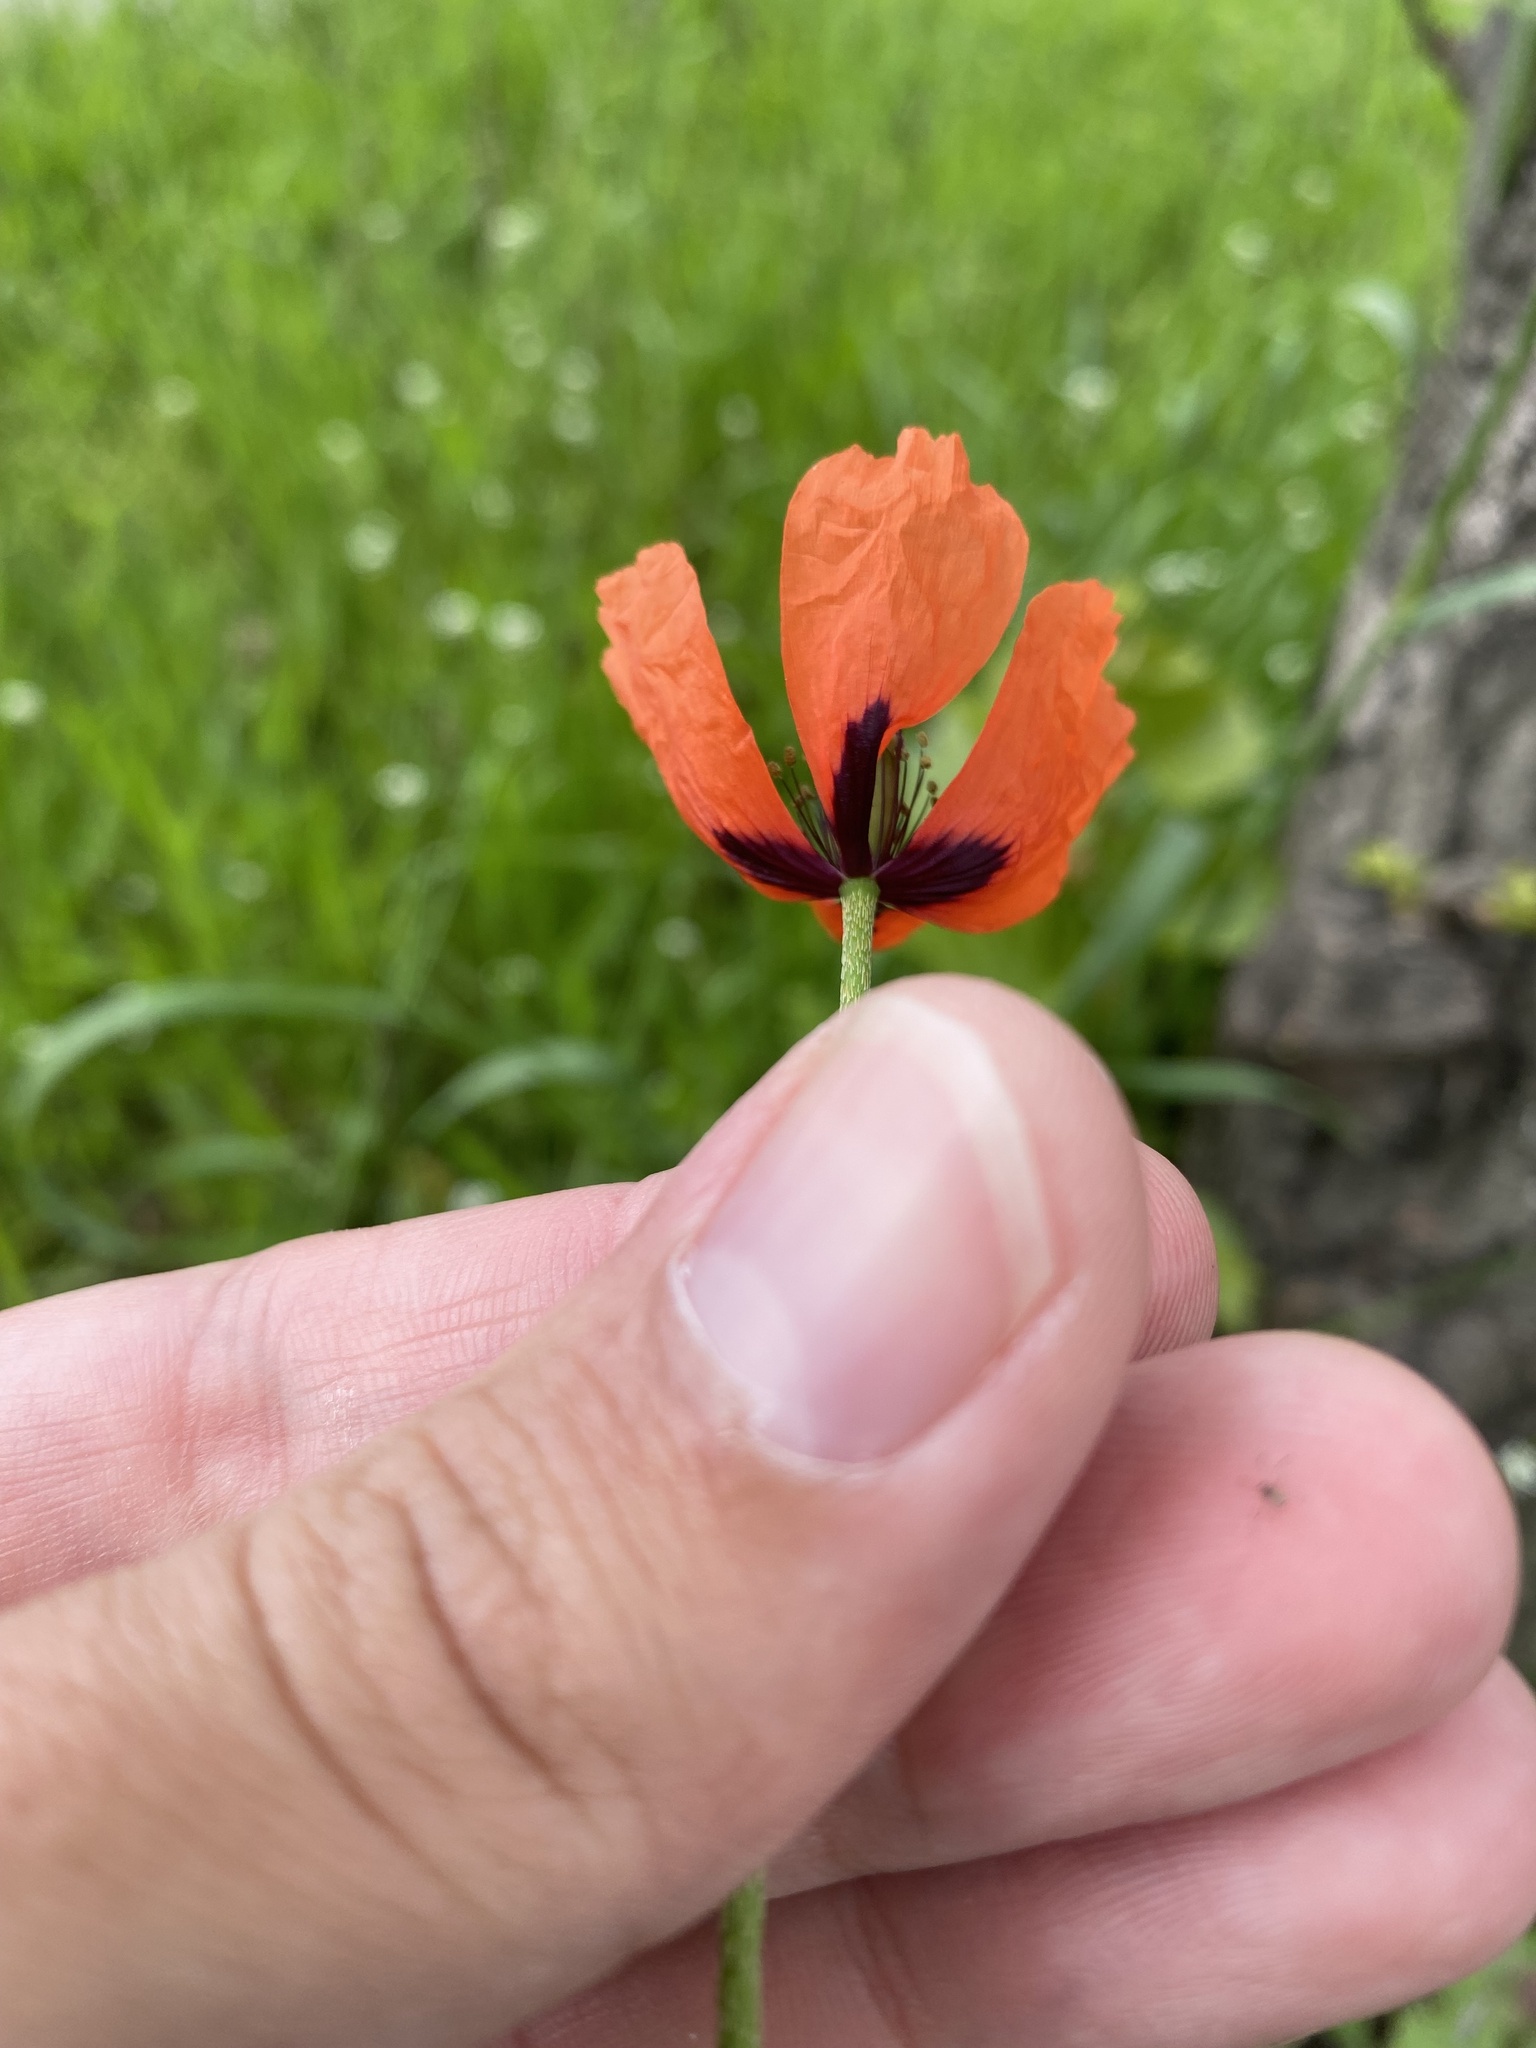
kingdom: Plantae
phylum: Tracheophyta
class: Magnoliopsida
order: Ranunculales
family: Papaveraceae
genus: Papaver
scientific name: Papaver dubium
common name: Long-headed poppy
